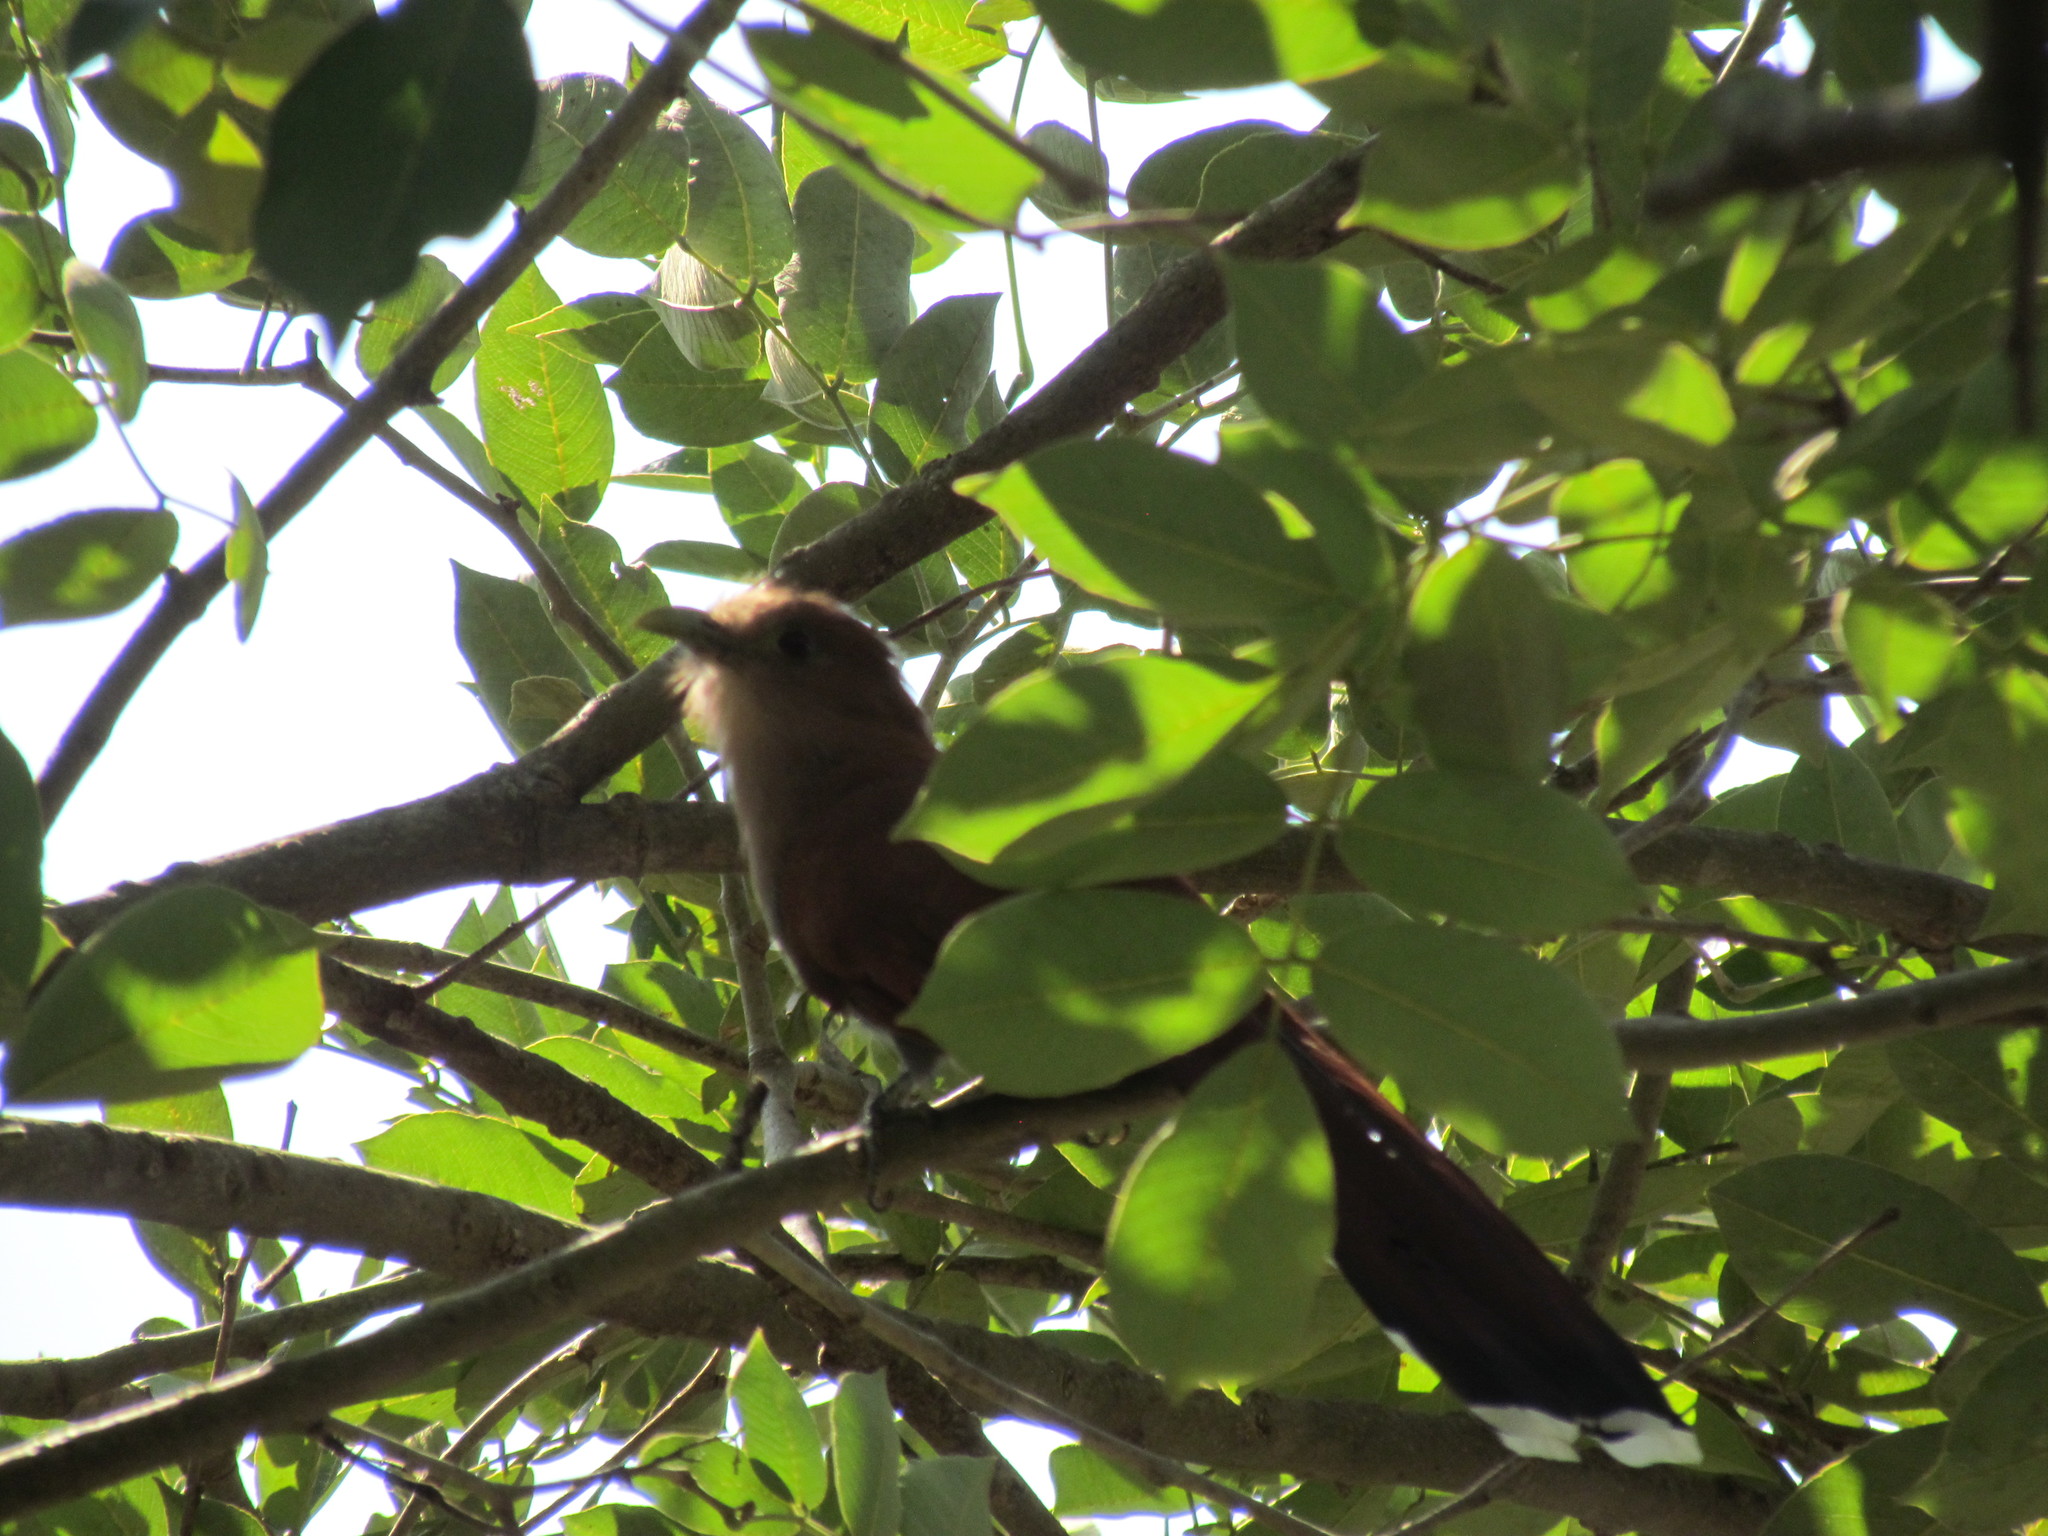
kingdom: Animalia
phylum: Chordata
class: Aves
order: Cuculiformes
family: Cuculidae
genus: Piaya
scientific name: Piaya cayana
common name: Squirrel cuckoo
